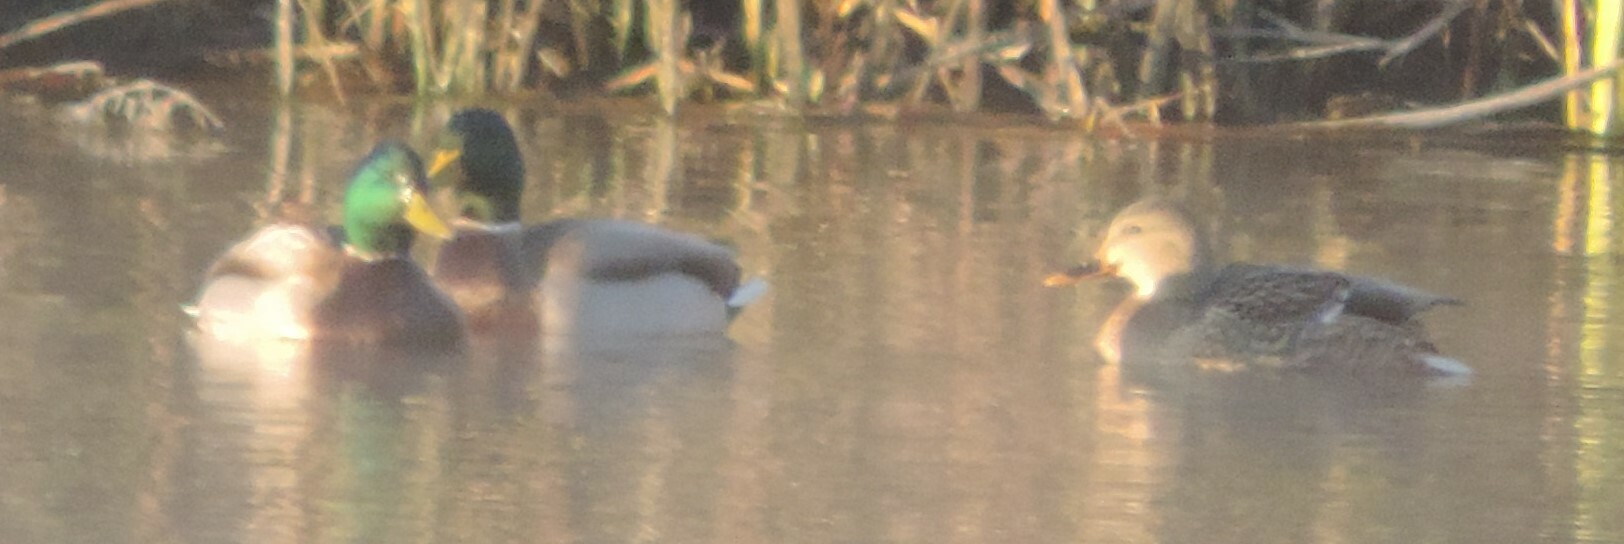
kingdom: Animalia
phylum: Chordata
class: Aves
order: Anseriformes
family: Anatidae
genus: Anas
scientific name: Anas platyrhynchos
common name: Mallard
